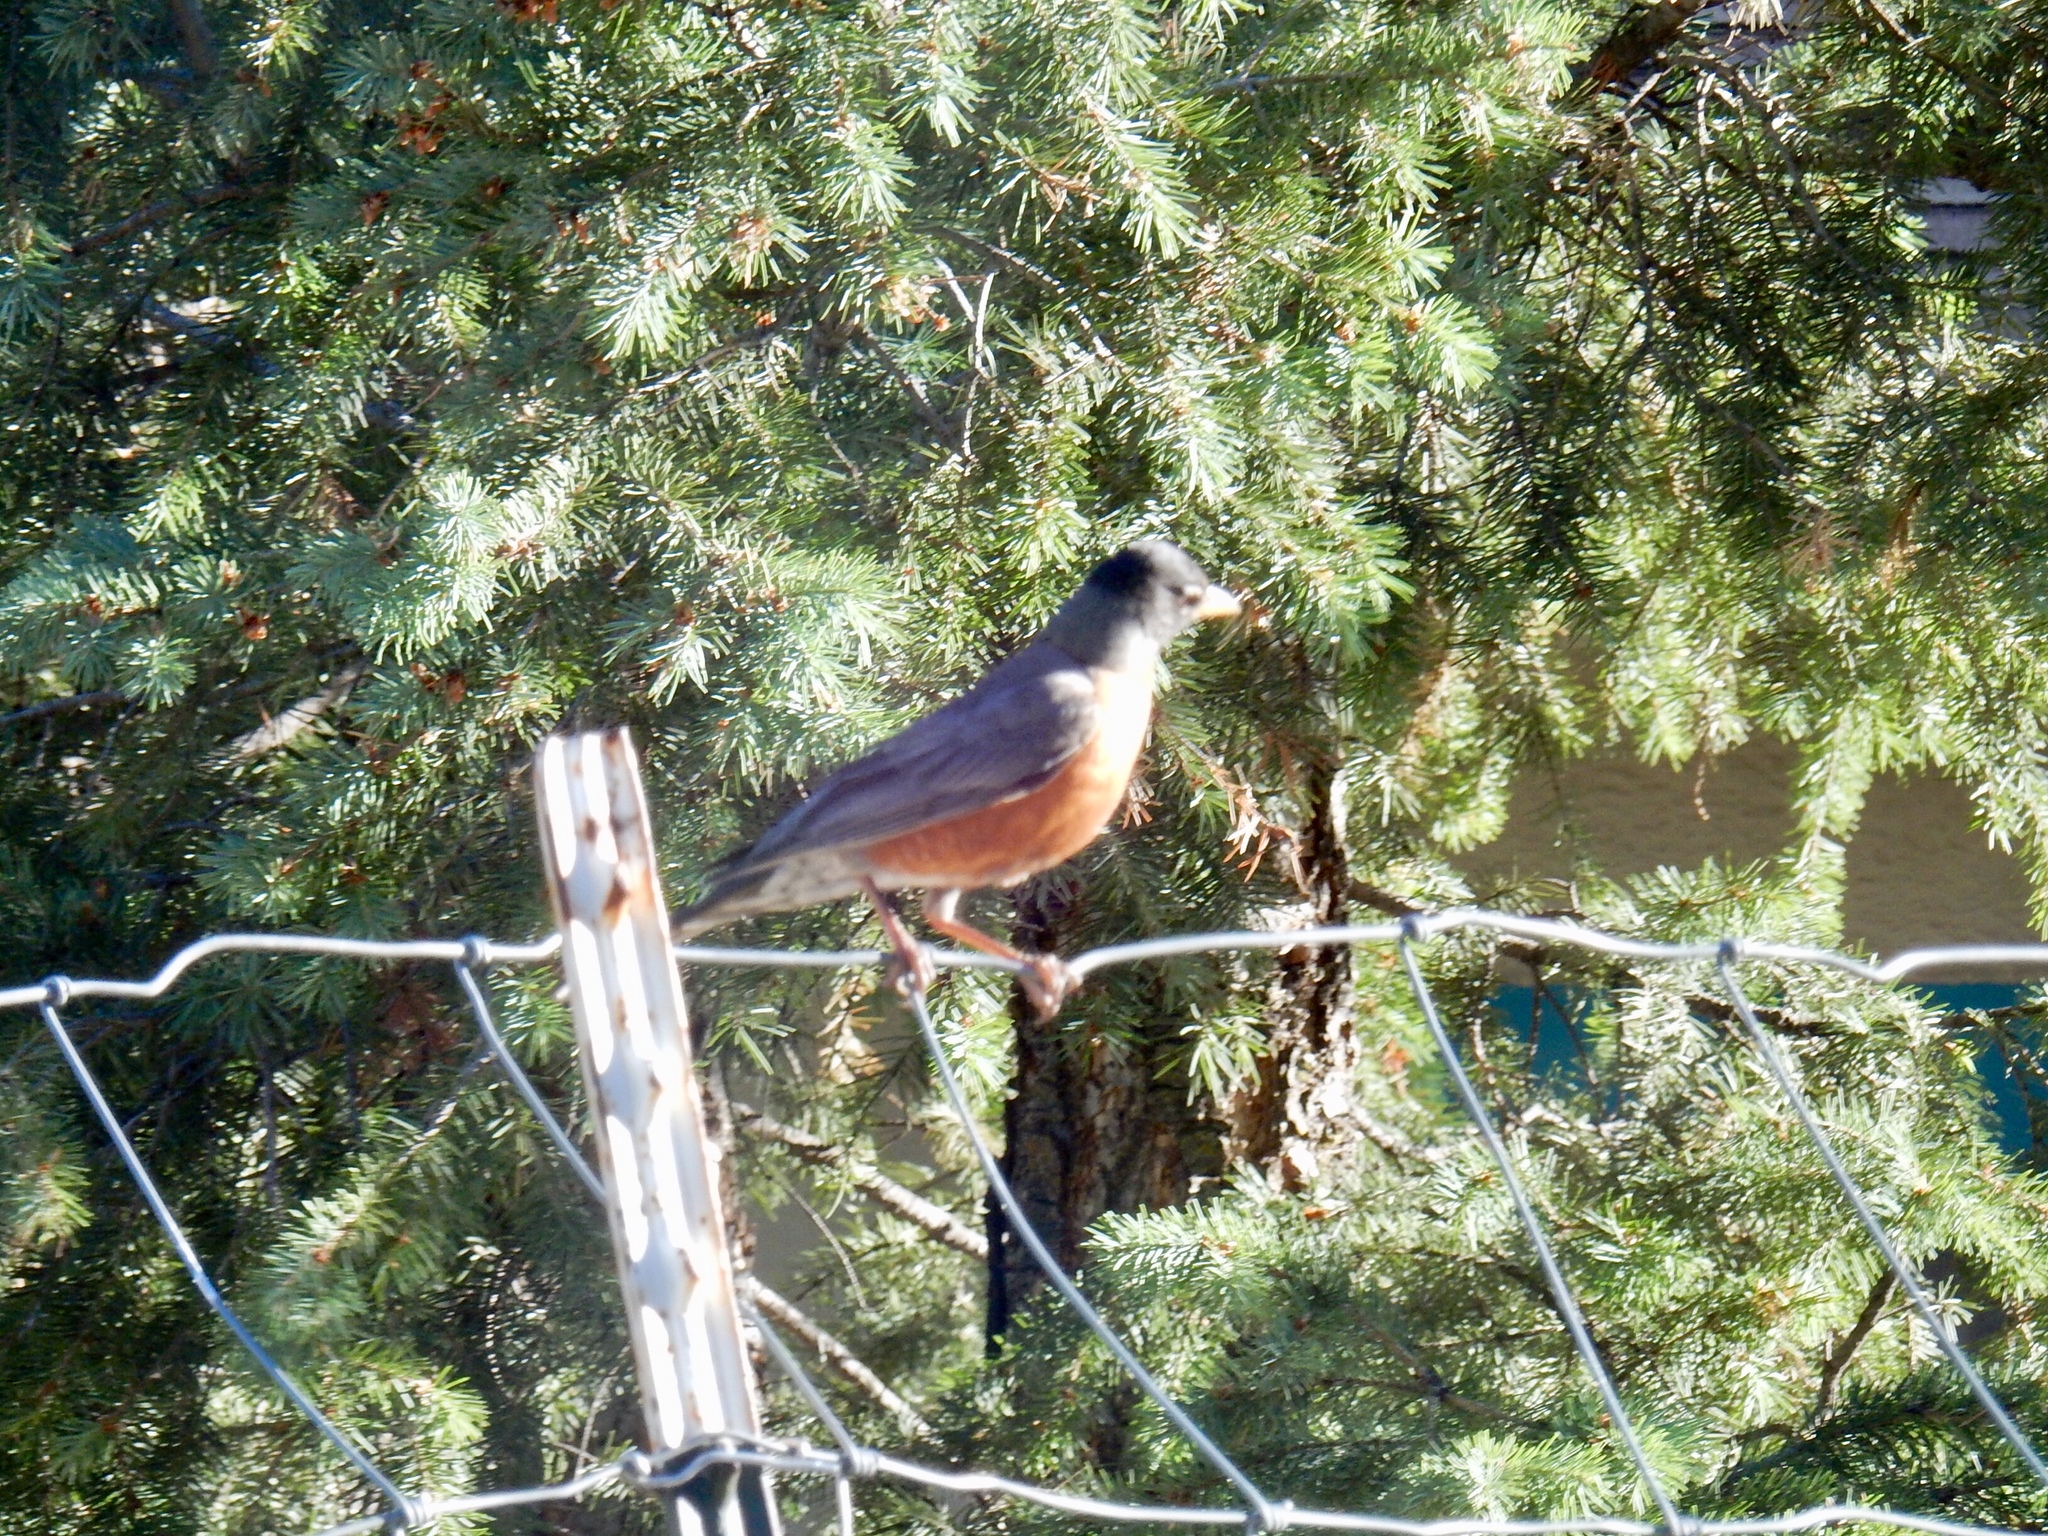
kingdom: Animalia
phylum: Chordata
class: Aves
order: Passeriformes
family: Turdidae
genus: Turdus
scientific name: Turdus migratorius
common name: American robin
